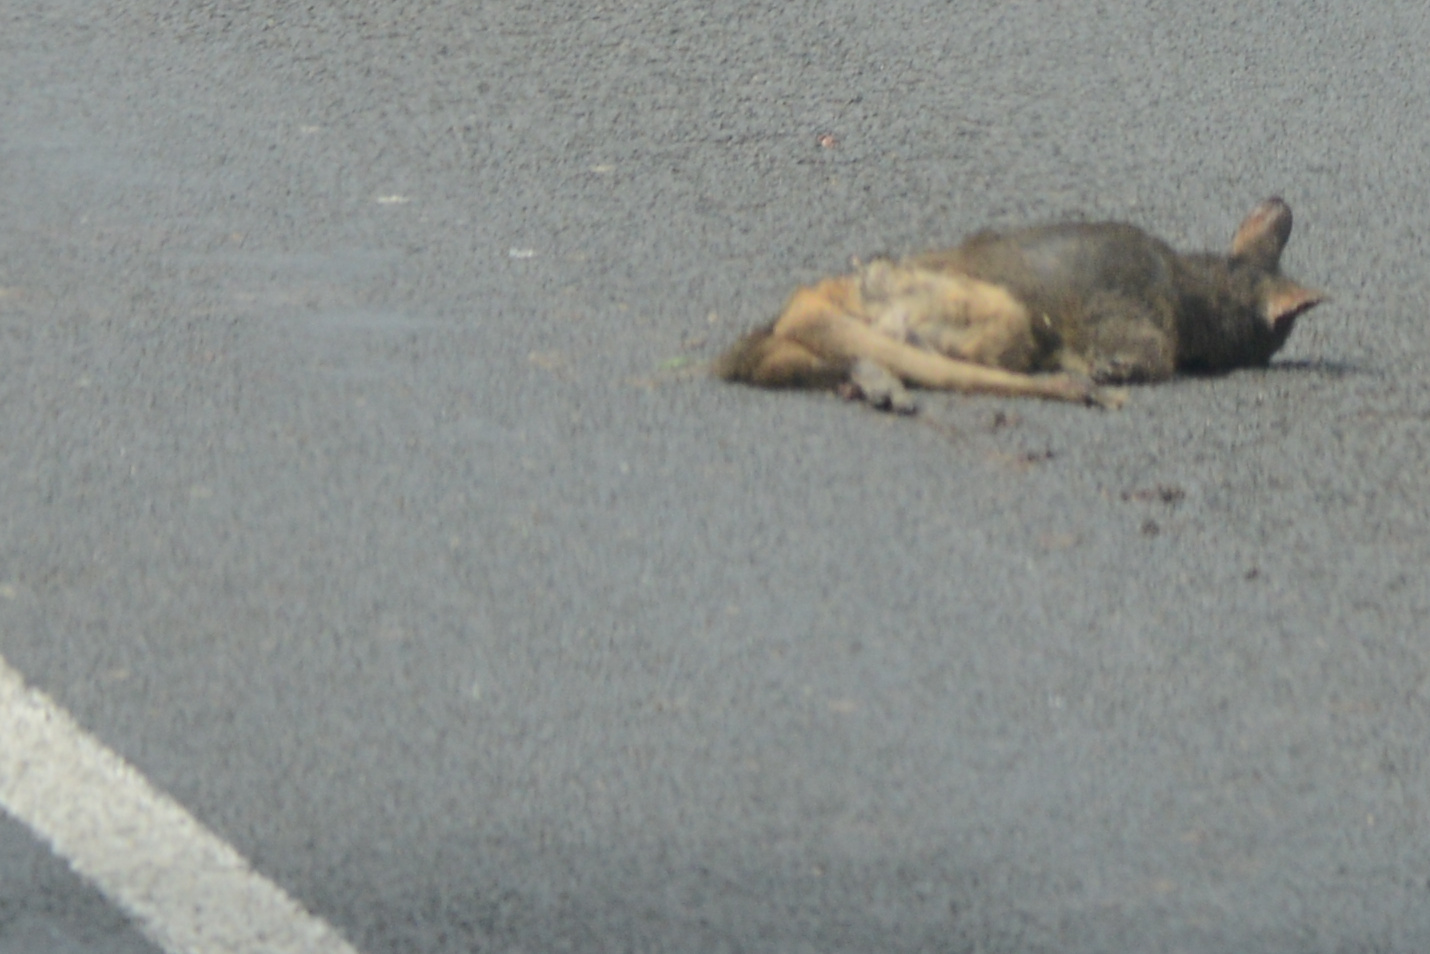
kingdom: Animalia
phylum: Chordata
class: Mammalia
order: Diprotodontia
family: Macropodidae
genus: Thylogale
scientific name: Thylogale billardierii
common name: Tasmanian pademelon
